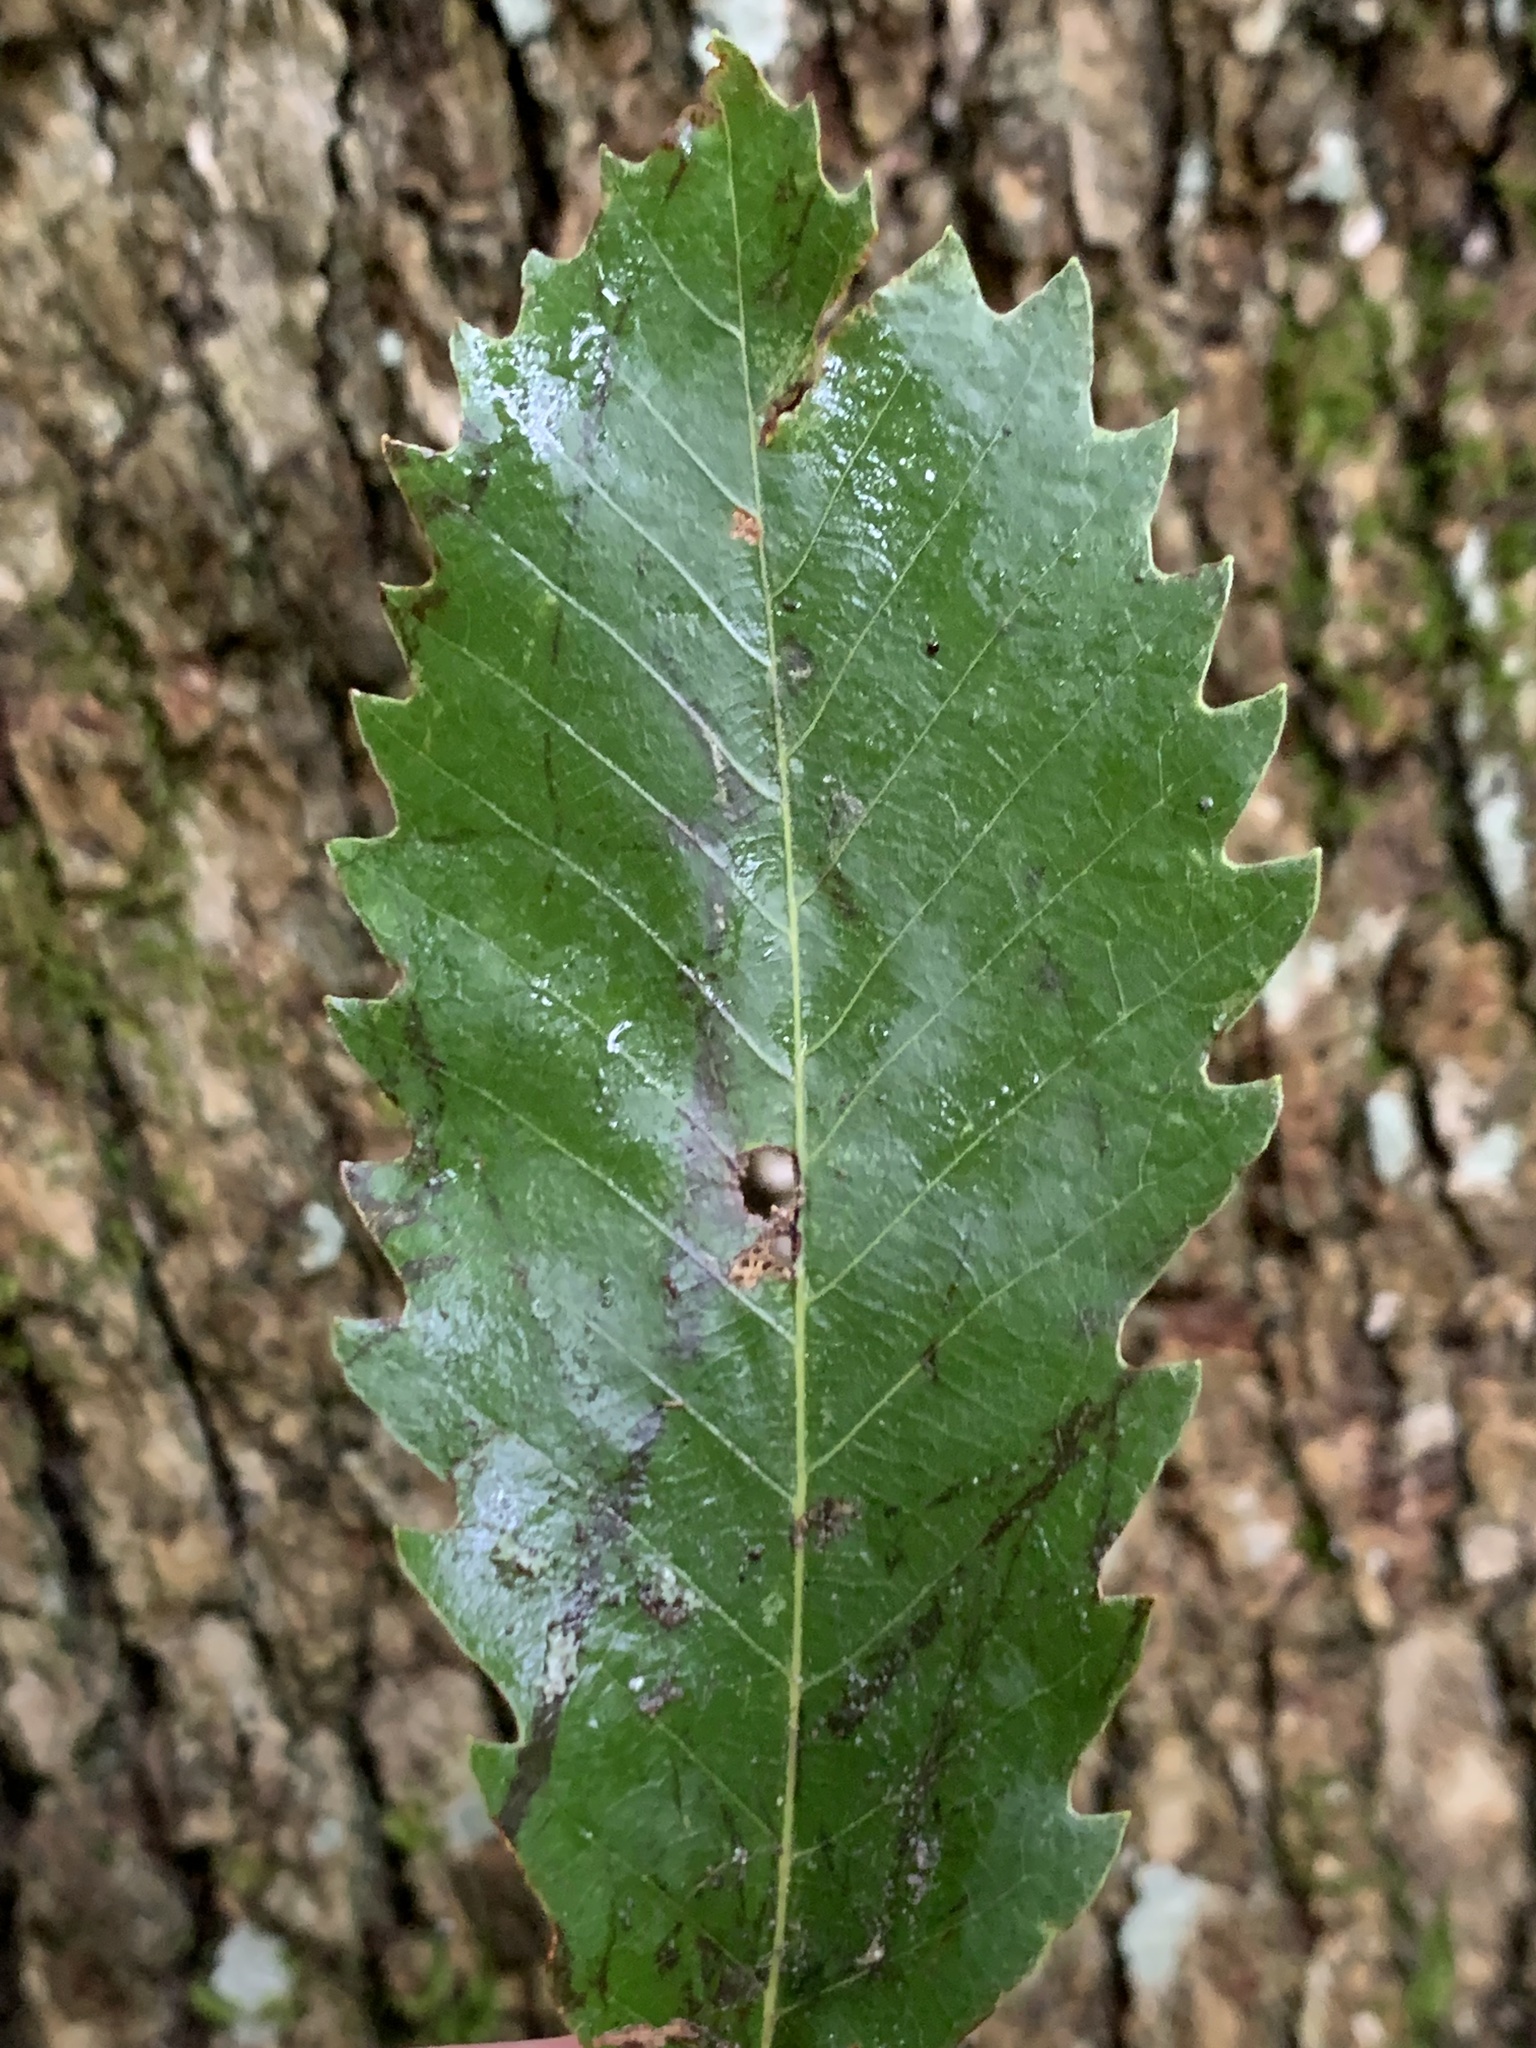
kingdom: Plantae
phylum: Tracheophyta
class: Magnoliopsida
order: Fagales
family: Fagaceae
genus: Quercus
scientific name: Quercus muehlenbergii
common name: Chinkapin oak
